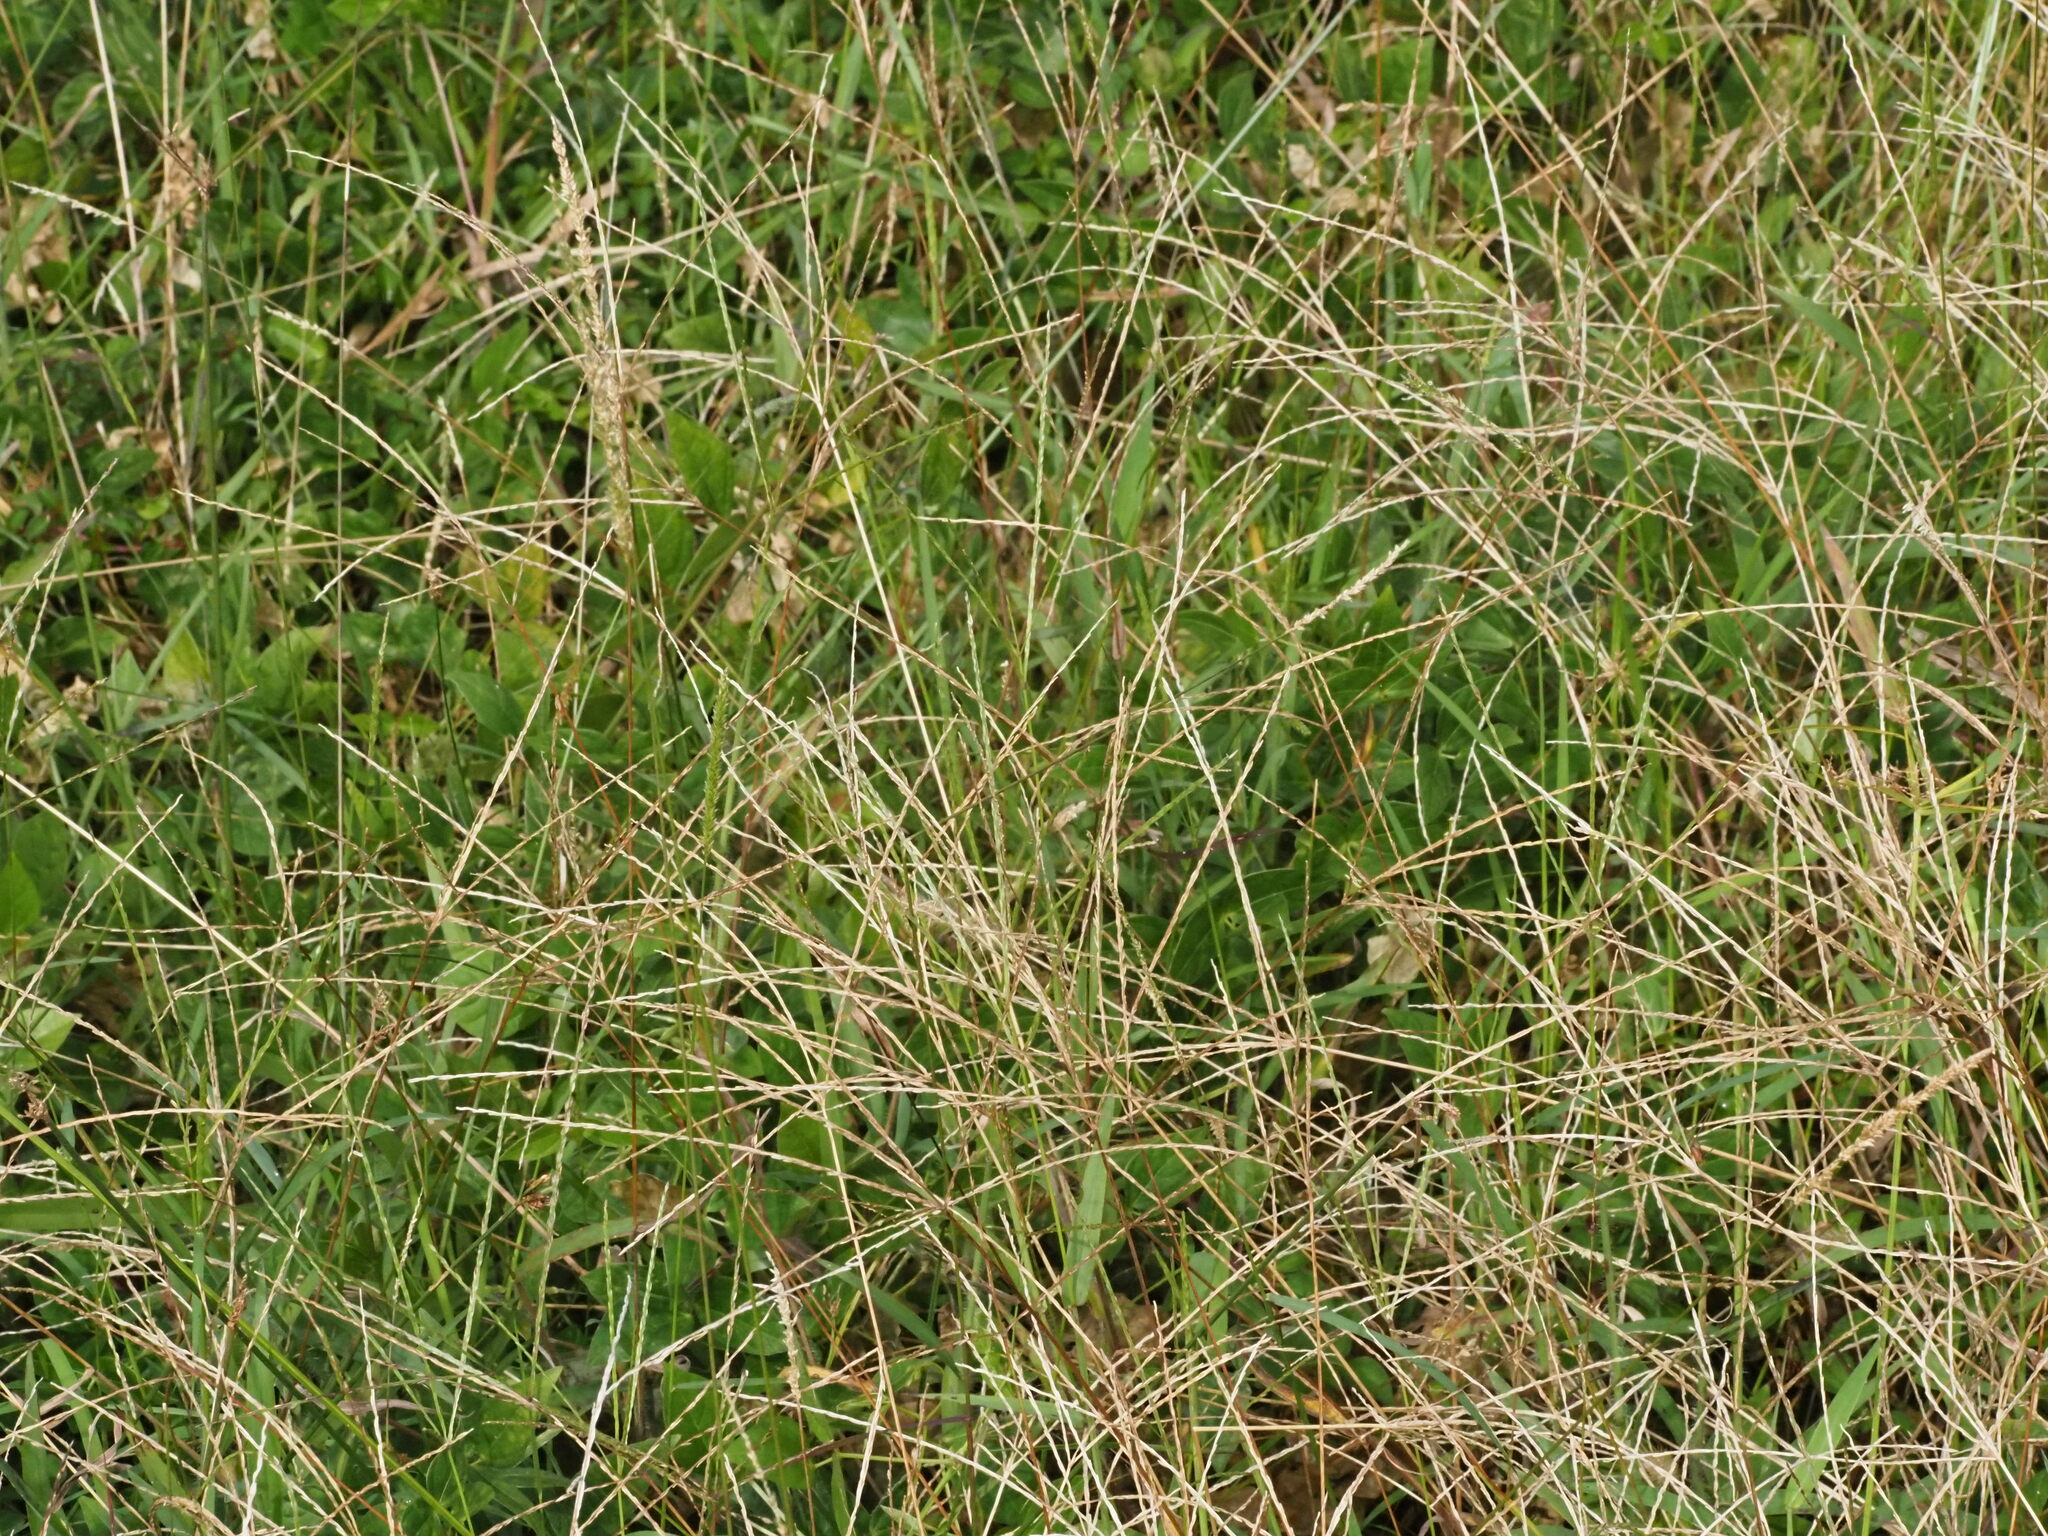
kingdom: Plantae
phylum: Tracheophyta
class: Liliopsida
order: Poales
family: Poaceae
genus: Digitaria
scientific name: Digitaria ciliaris
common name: Tropical finger-grass
